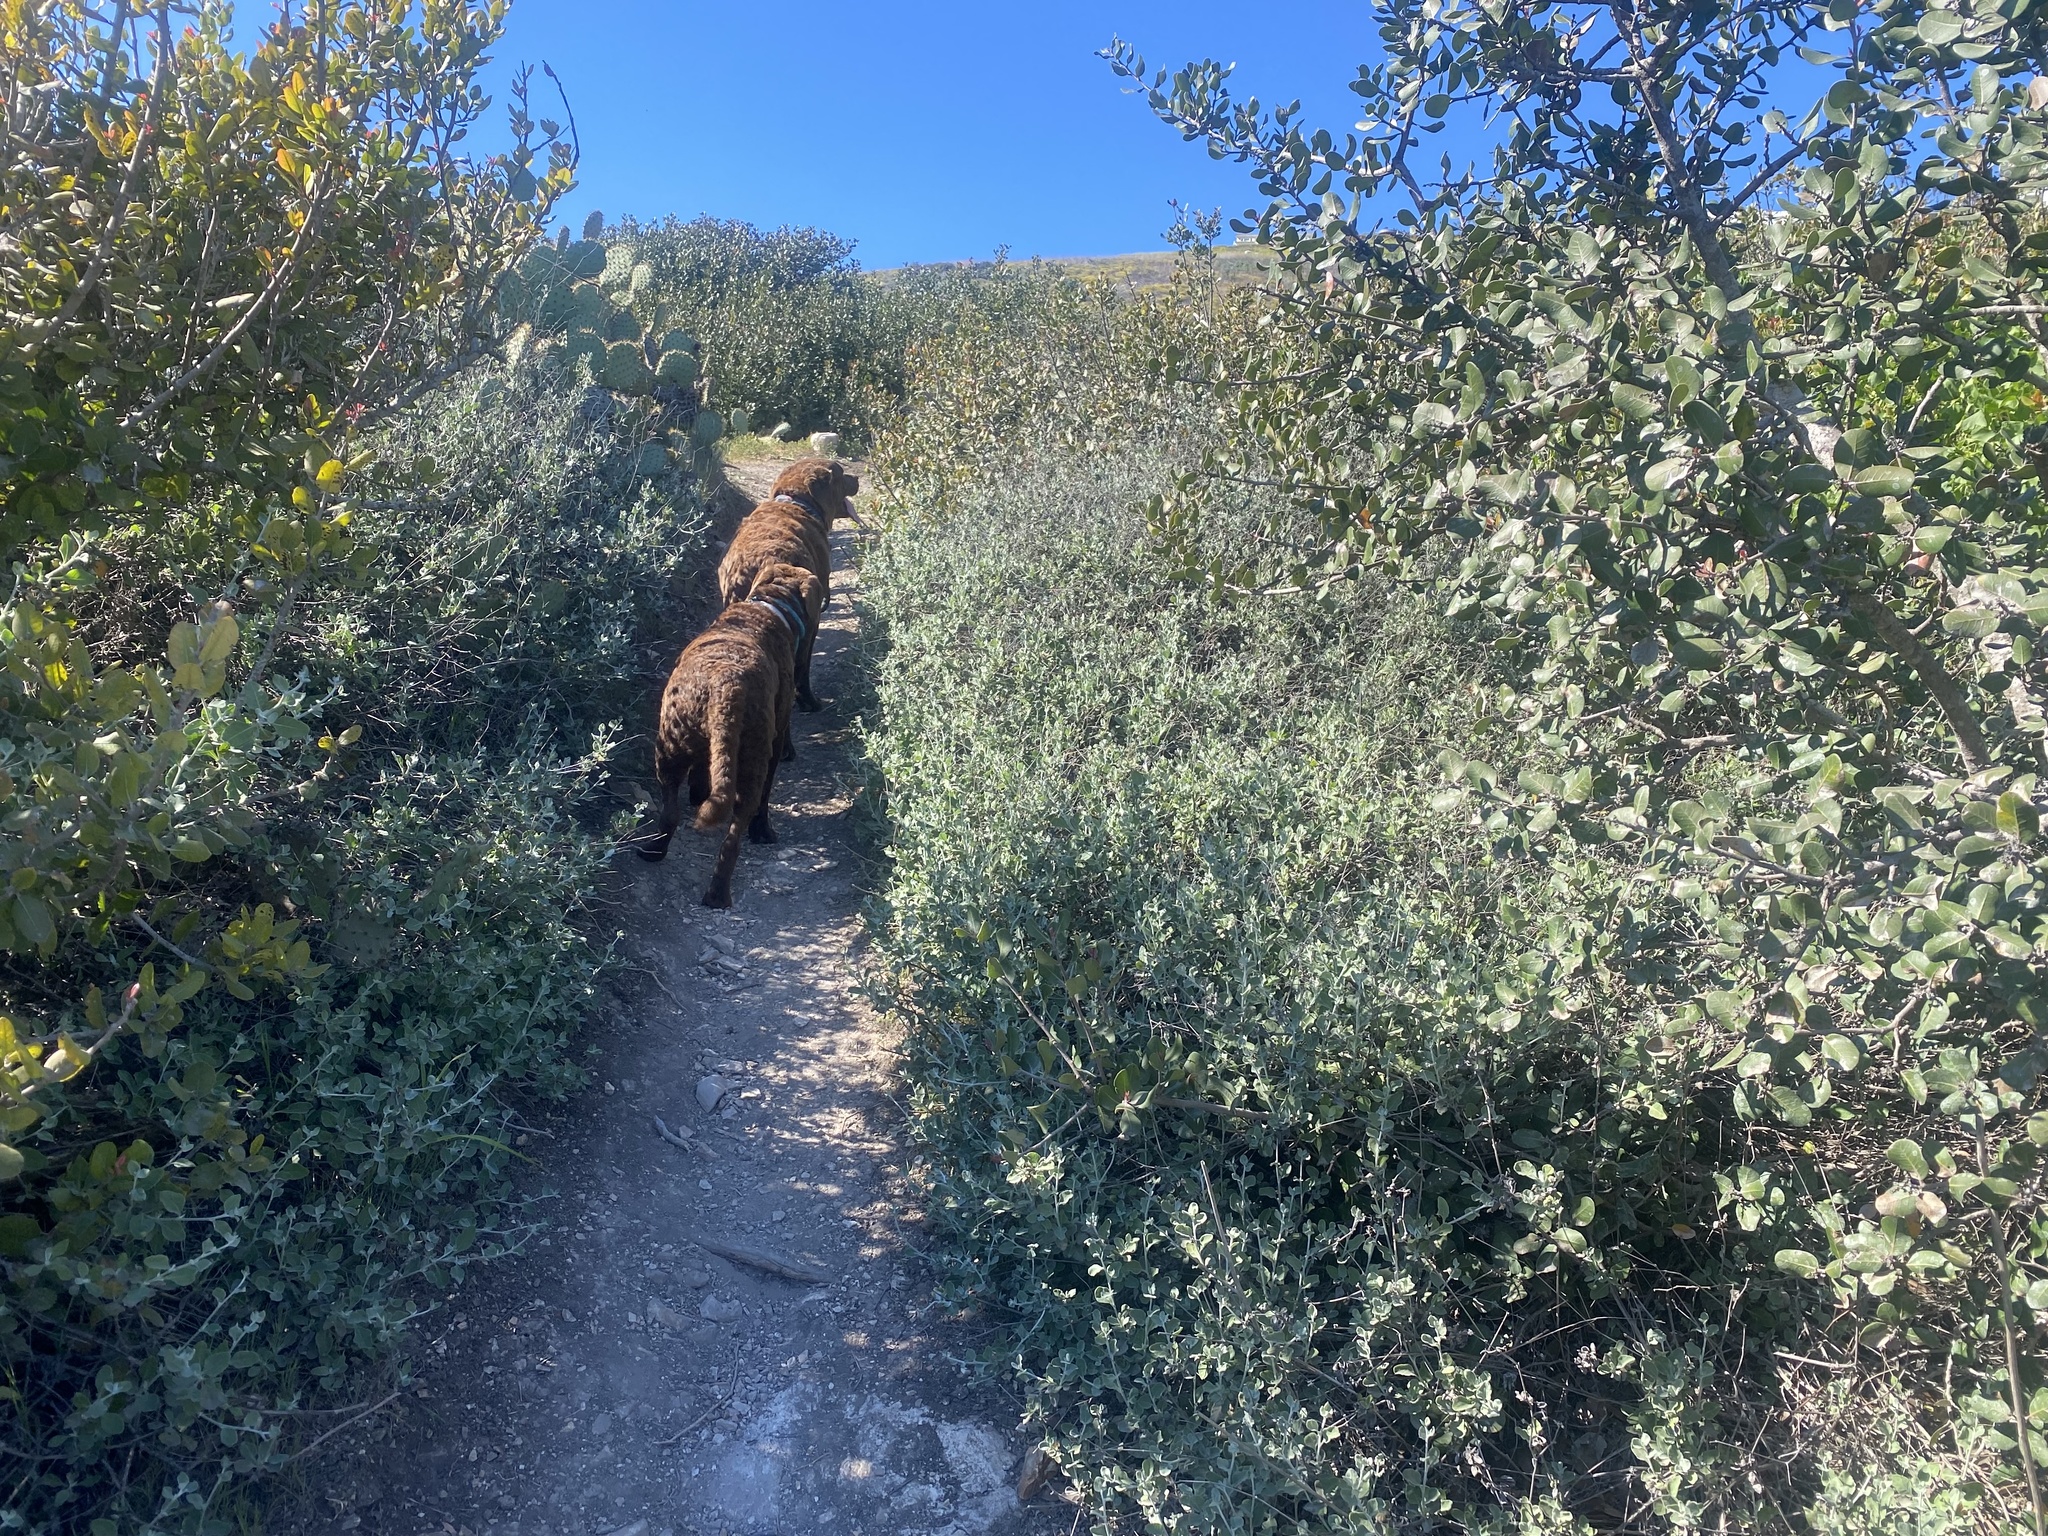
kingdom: Plantae
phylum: Tracheophyta
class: Magnoliopsida
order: Caryophyllales
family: Polygonaceae
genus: Eriogonum
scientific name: Eriogonum cinereum
